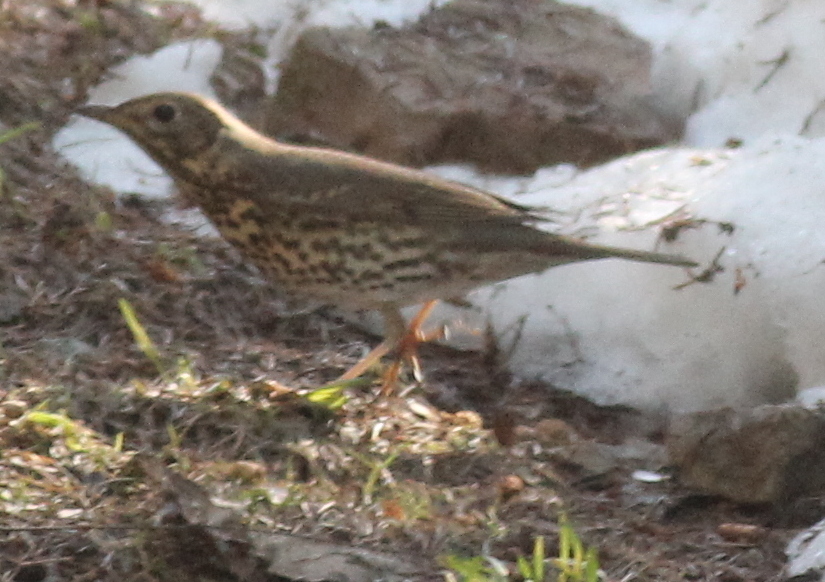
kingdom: Animalia
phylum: Chordata
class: Aves
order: Passeriformes
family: Turdidae
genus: Turdus
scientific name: Turdus philomelos
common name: Song thrush
